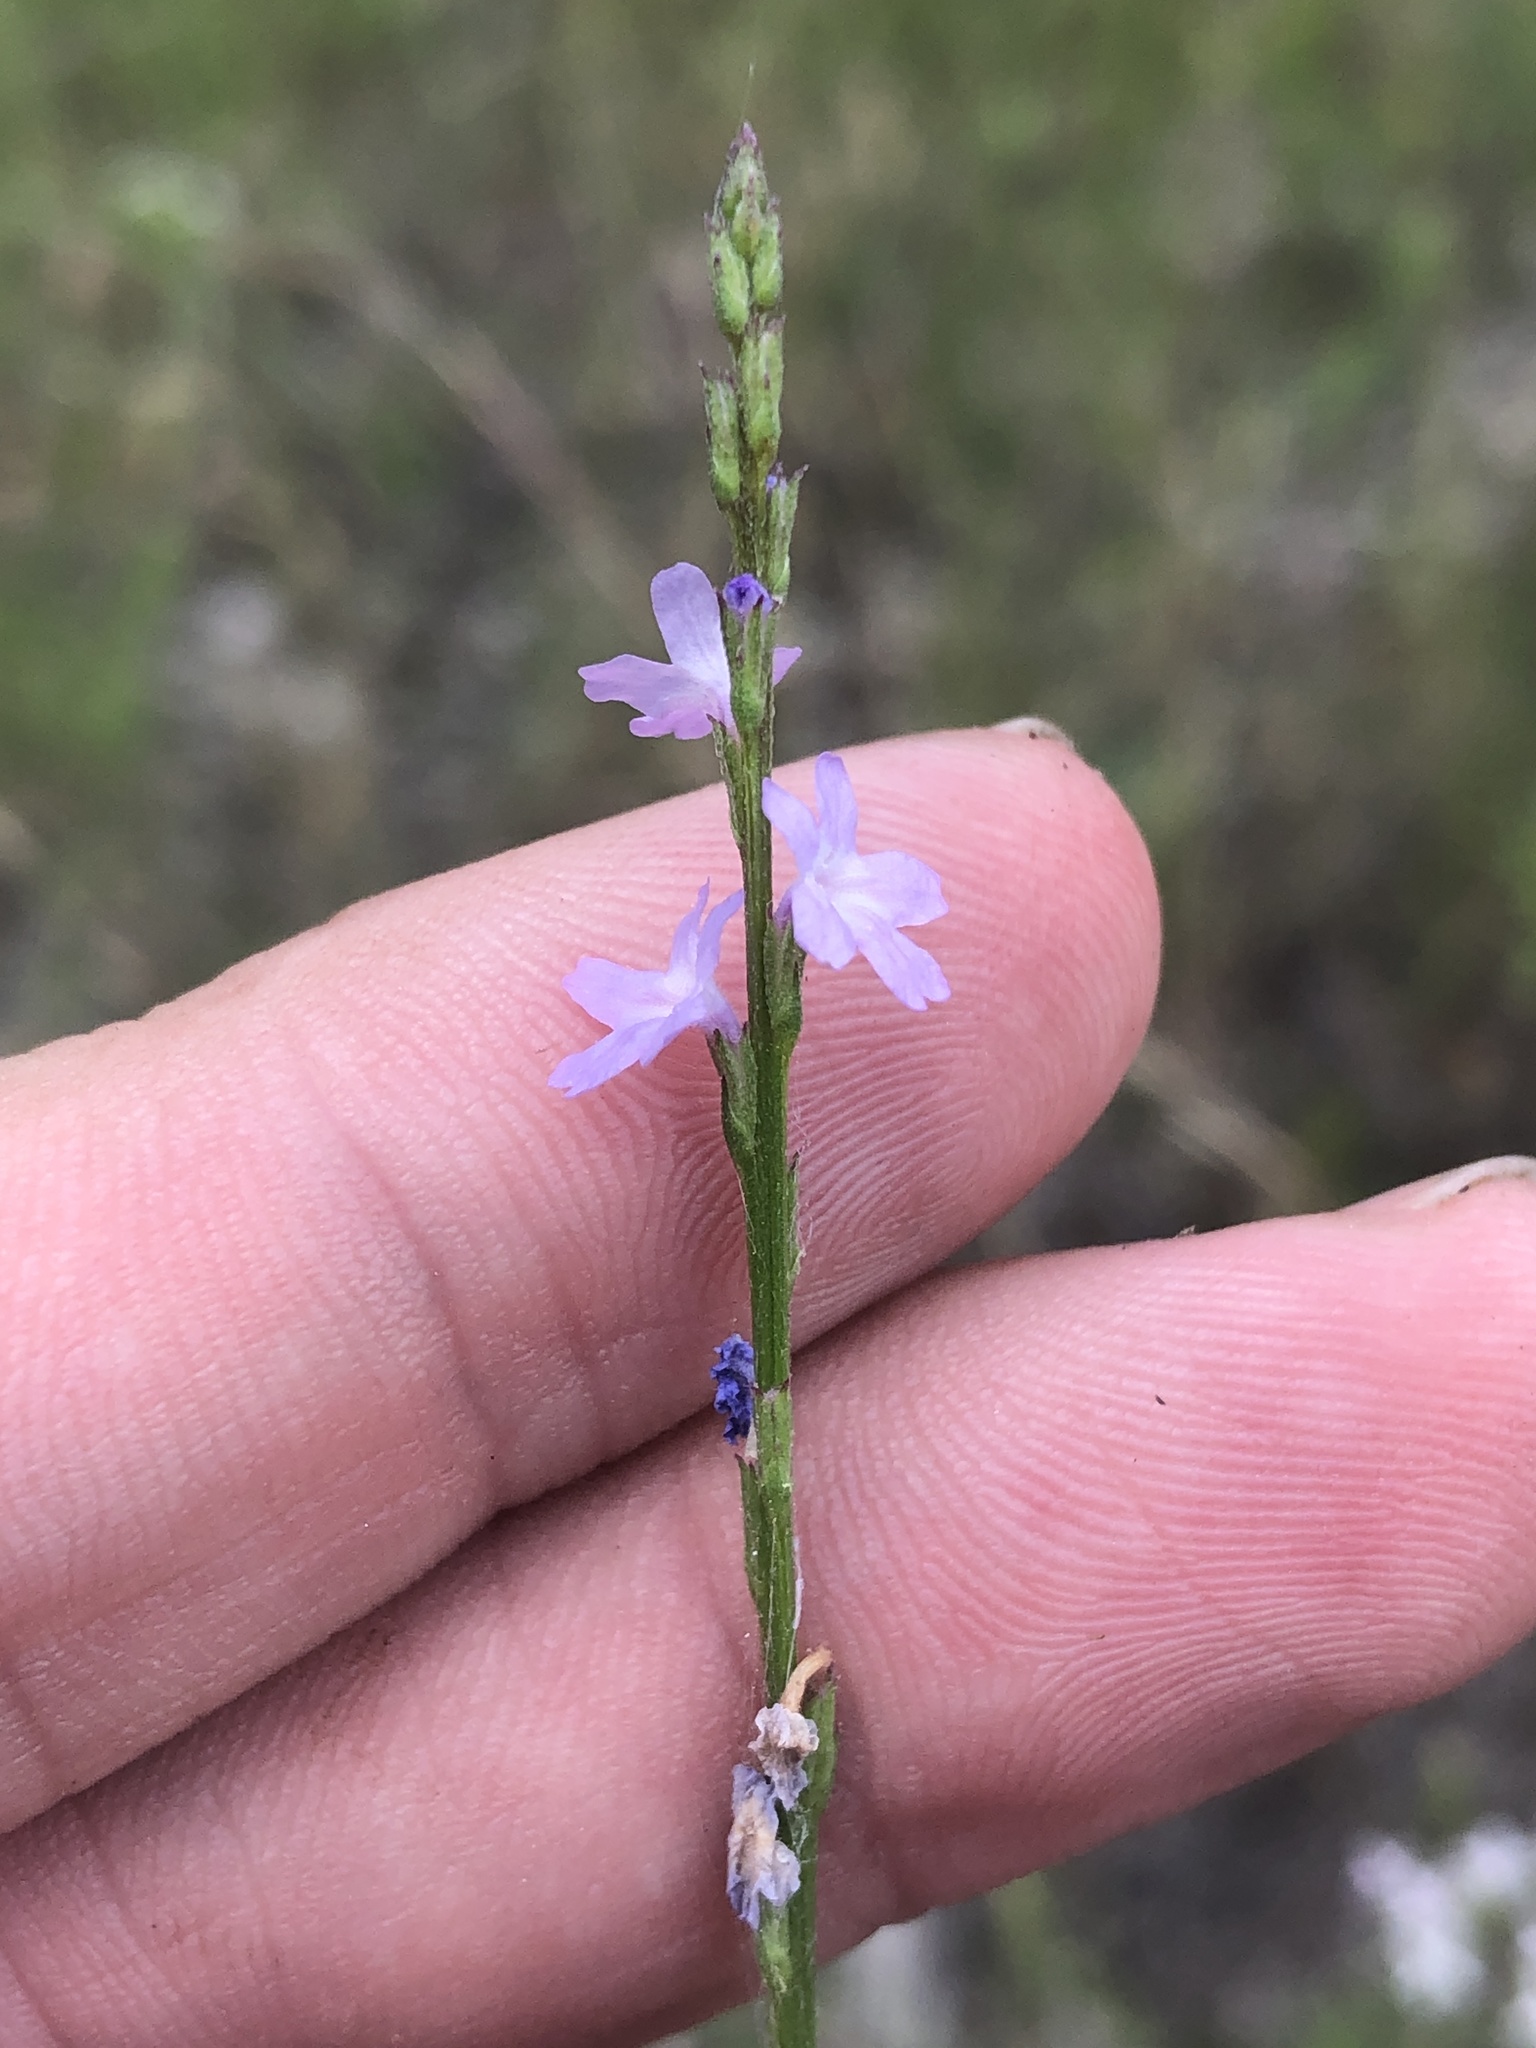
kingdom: Plantae
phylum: Tracheophyta
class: Magnoliopsida
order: Lamiales
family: Verbenaceae
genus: Verbena
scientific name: Verbena halei
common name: Texas vervain
